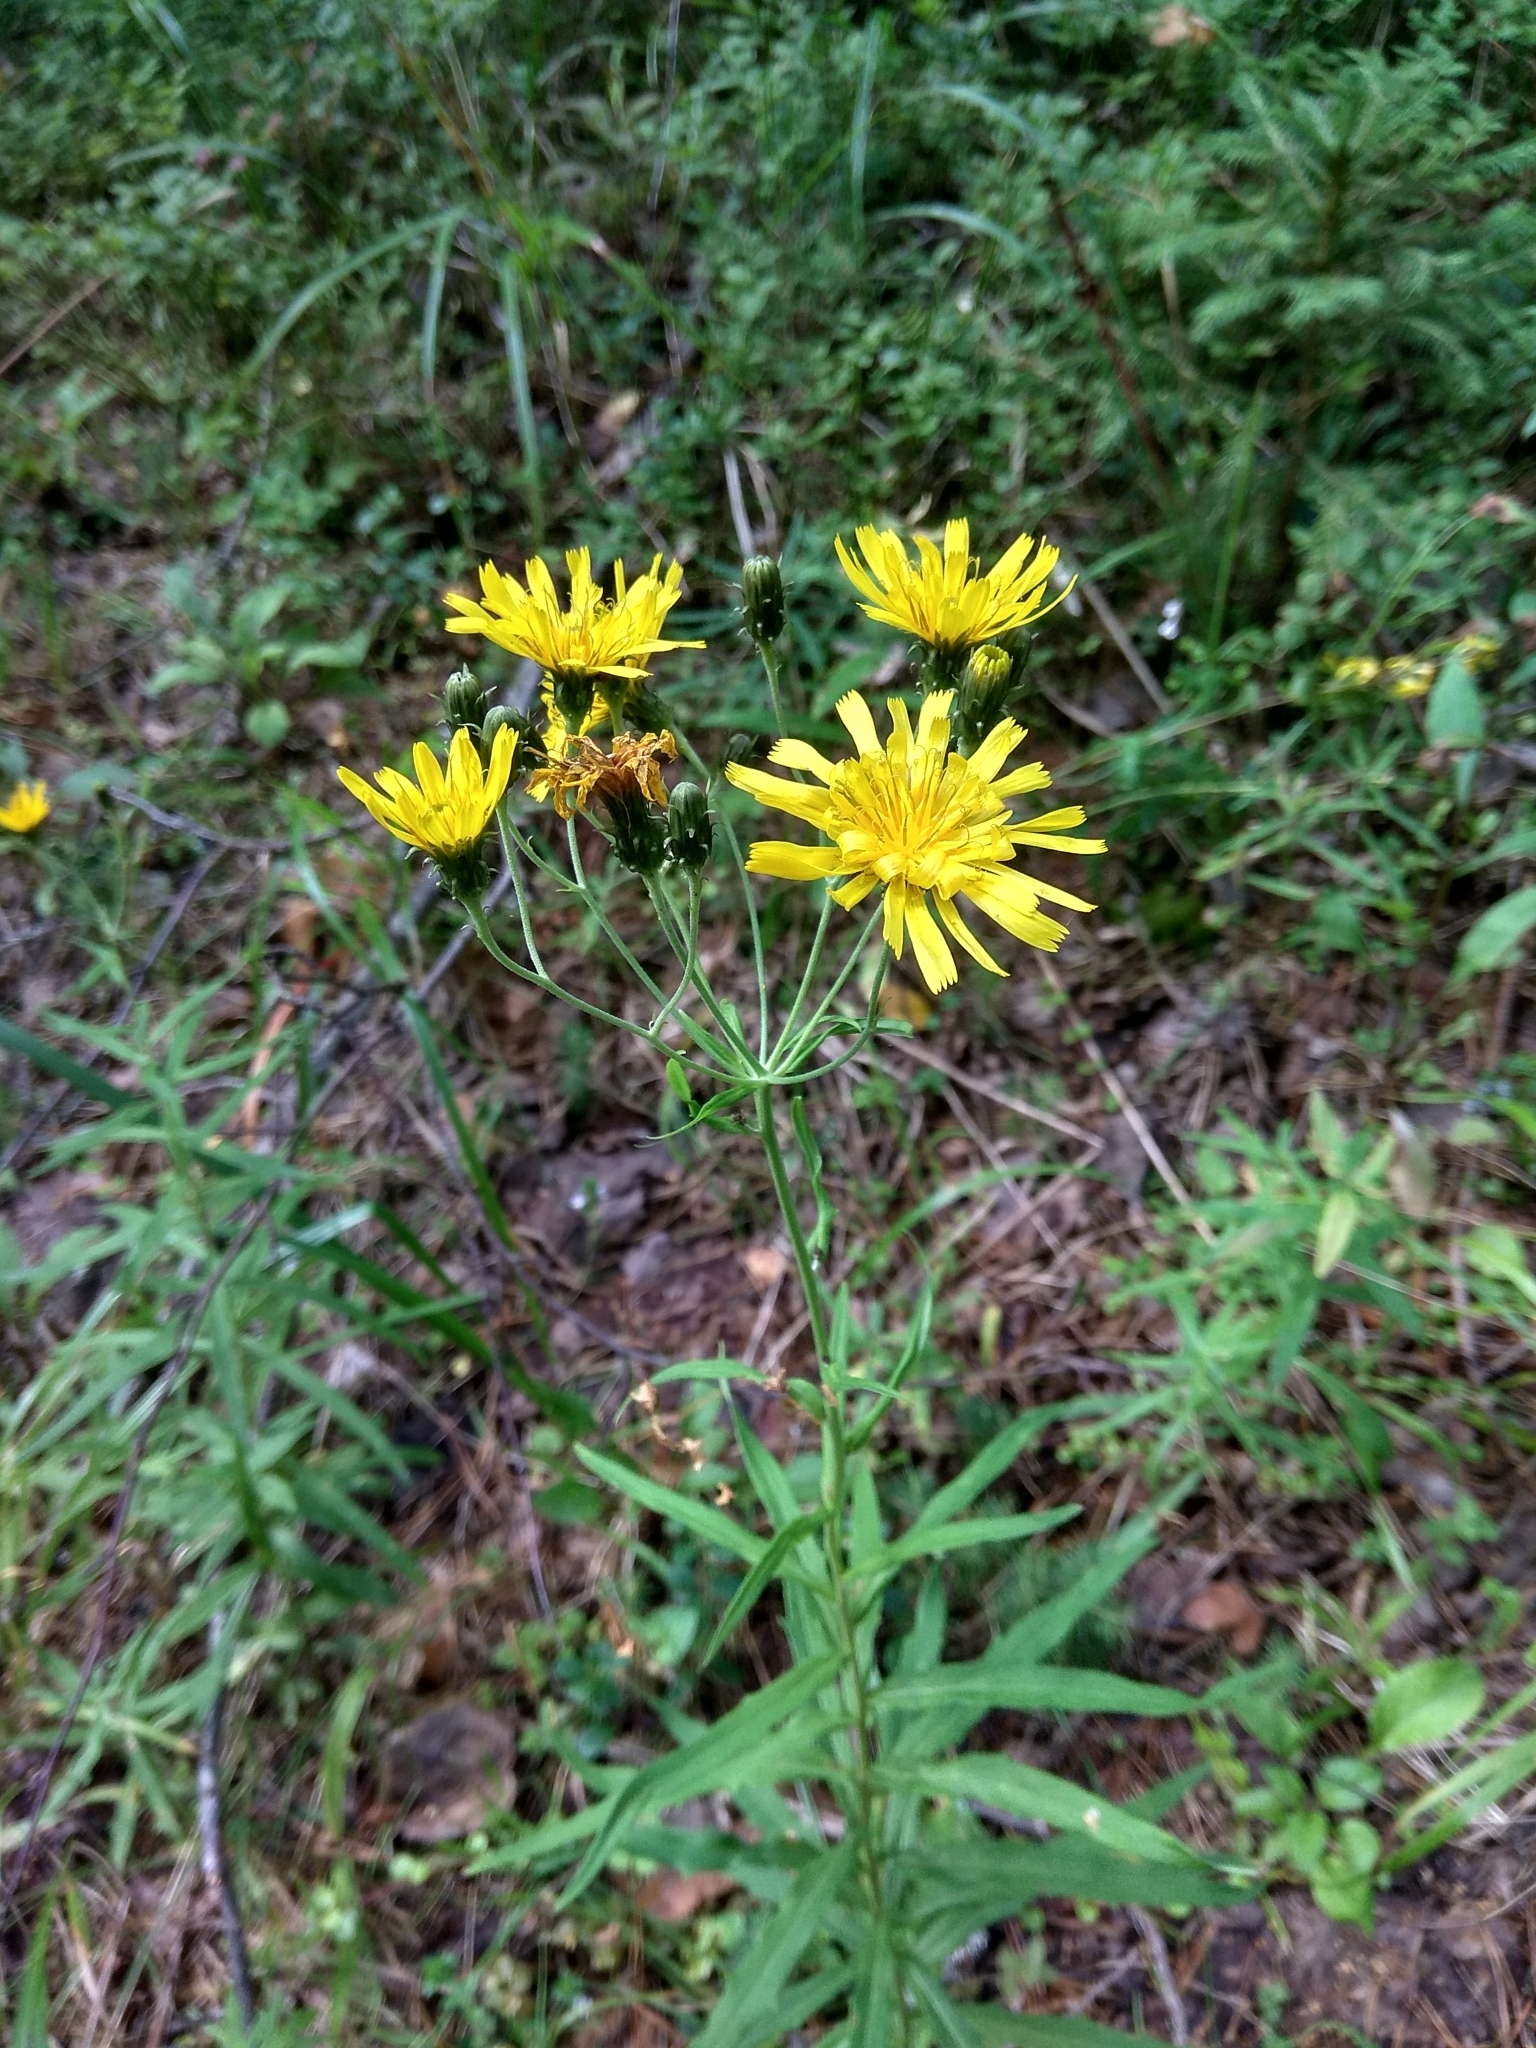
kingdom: Plantae
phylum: Tracheophyta
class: Magnoliopsida
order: Asterales
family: Asteraceae
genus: Hieracium
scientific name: Hieracium umbellatum
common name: Northern hawkweed
